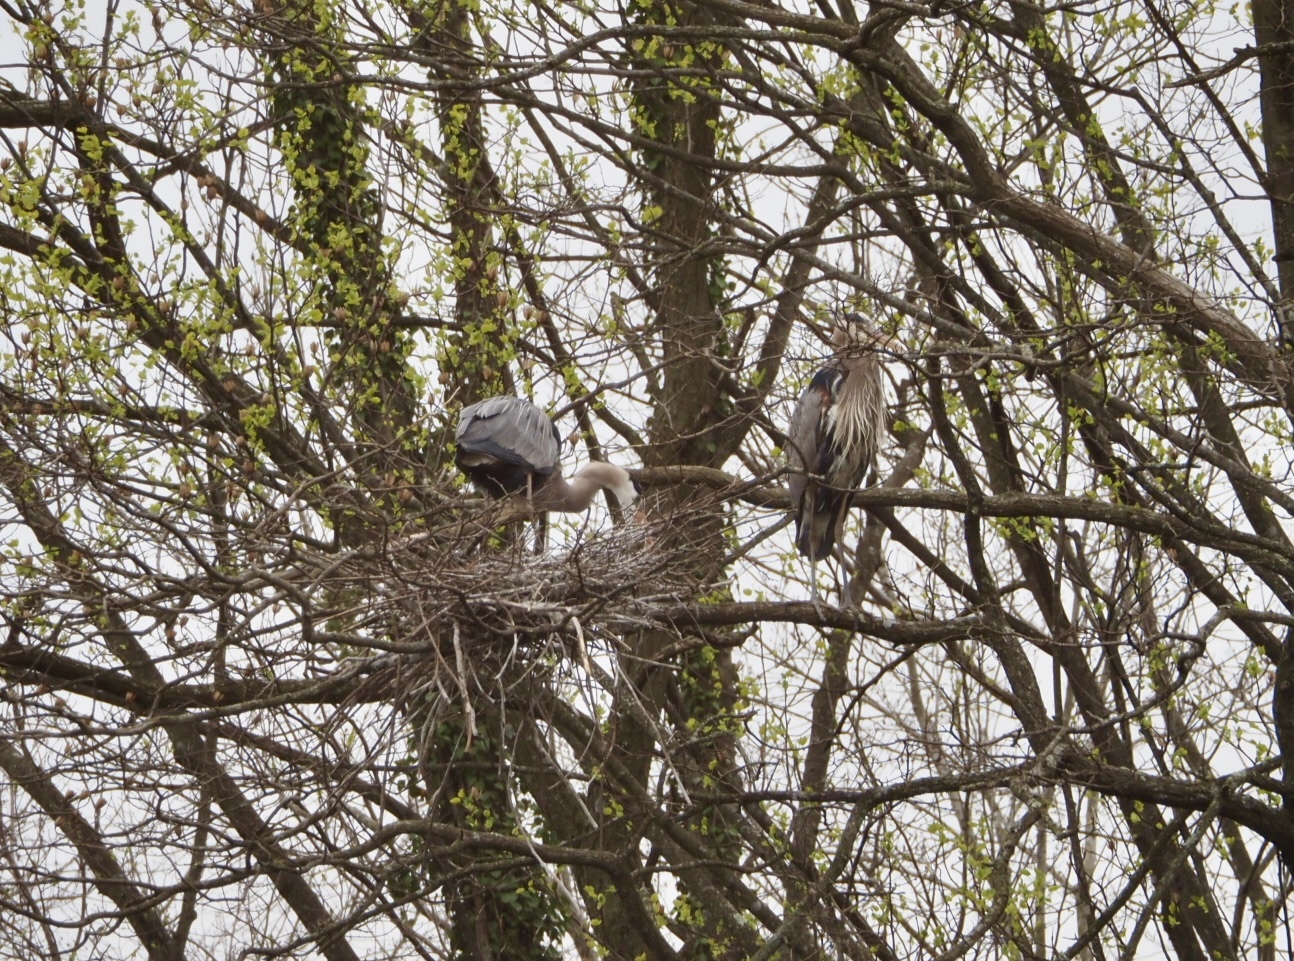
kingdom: Animalia
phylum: Chordata
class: Aves
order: Pelecaniformes
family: Ardeidae
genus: Ardea
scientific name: Ardea herodias
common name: Great blue heron
